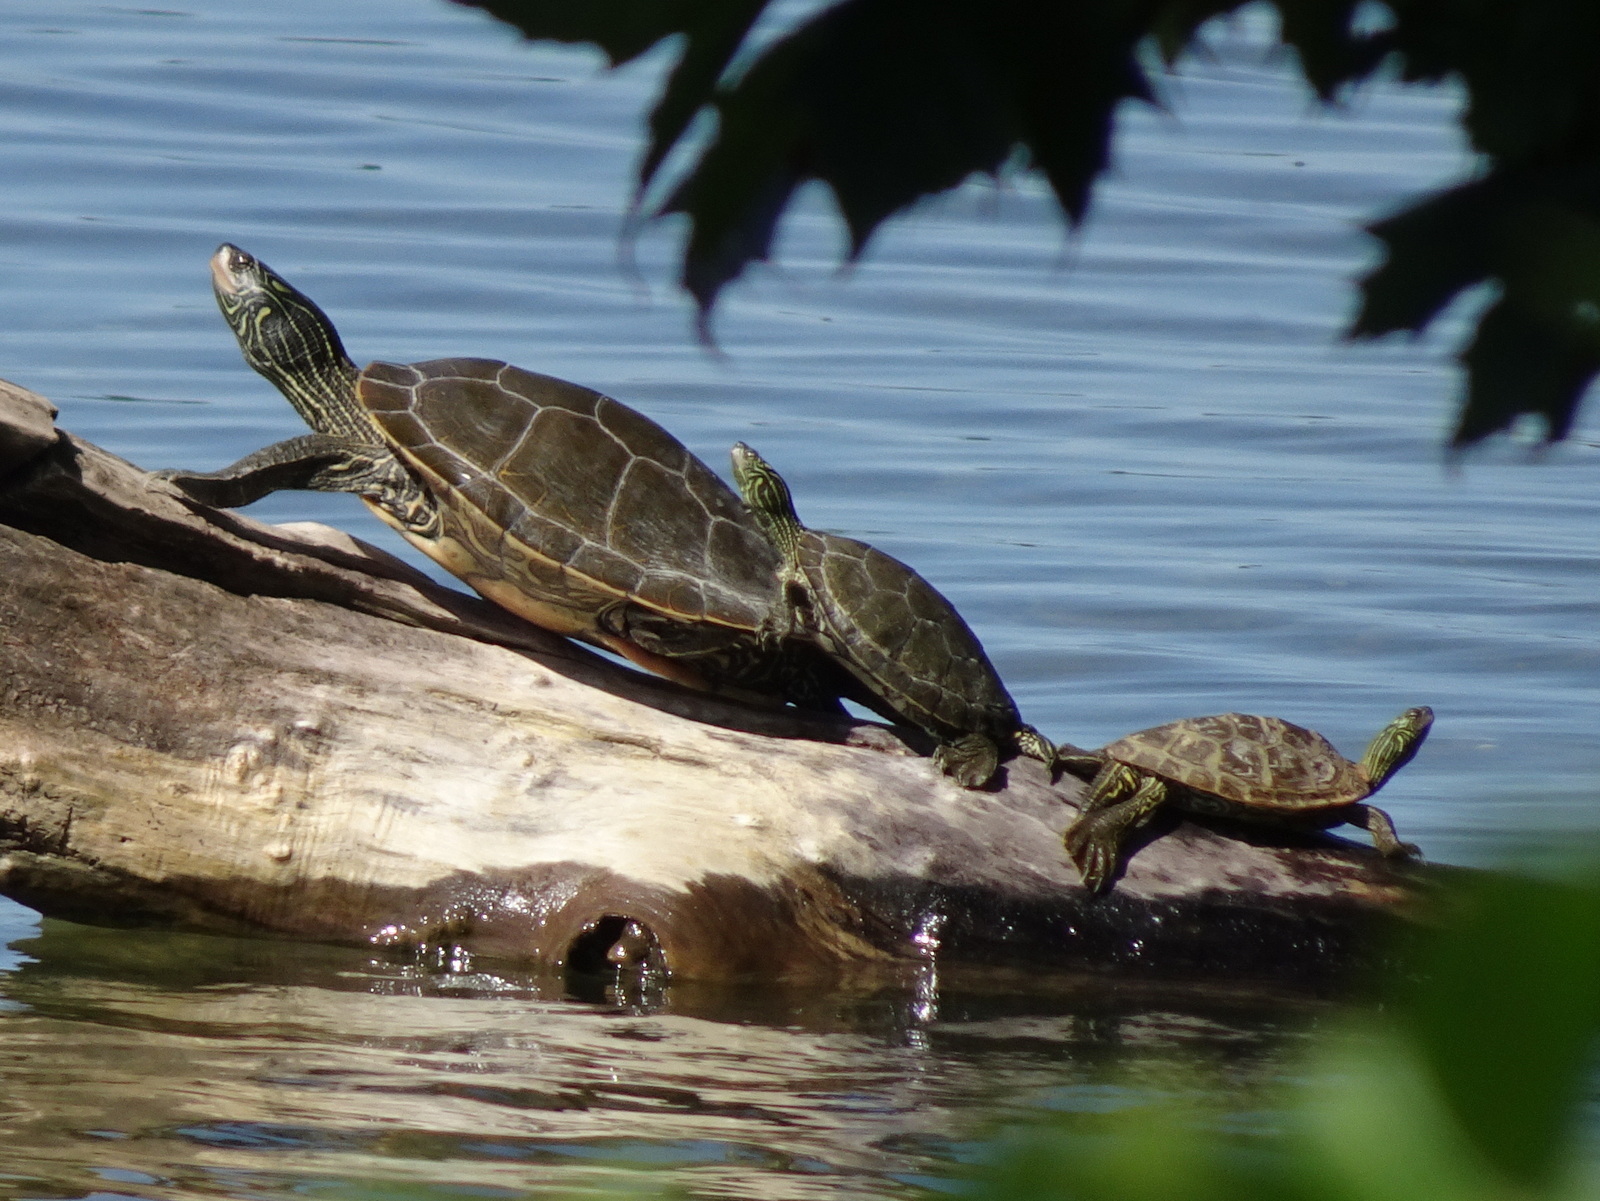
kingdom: Animalia
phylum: Chordata
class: Testudines
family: Emydidae
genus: Graptemys
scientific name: Graptemys geographica
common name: Common map turtle
